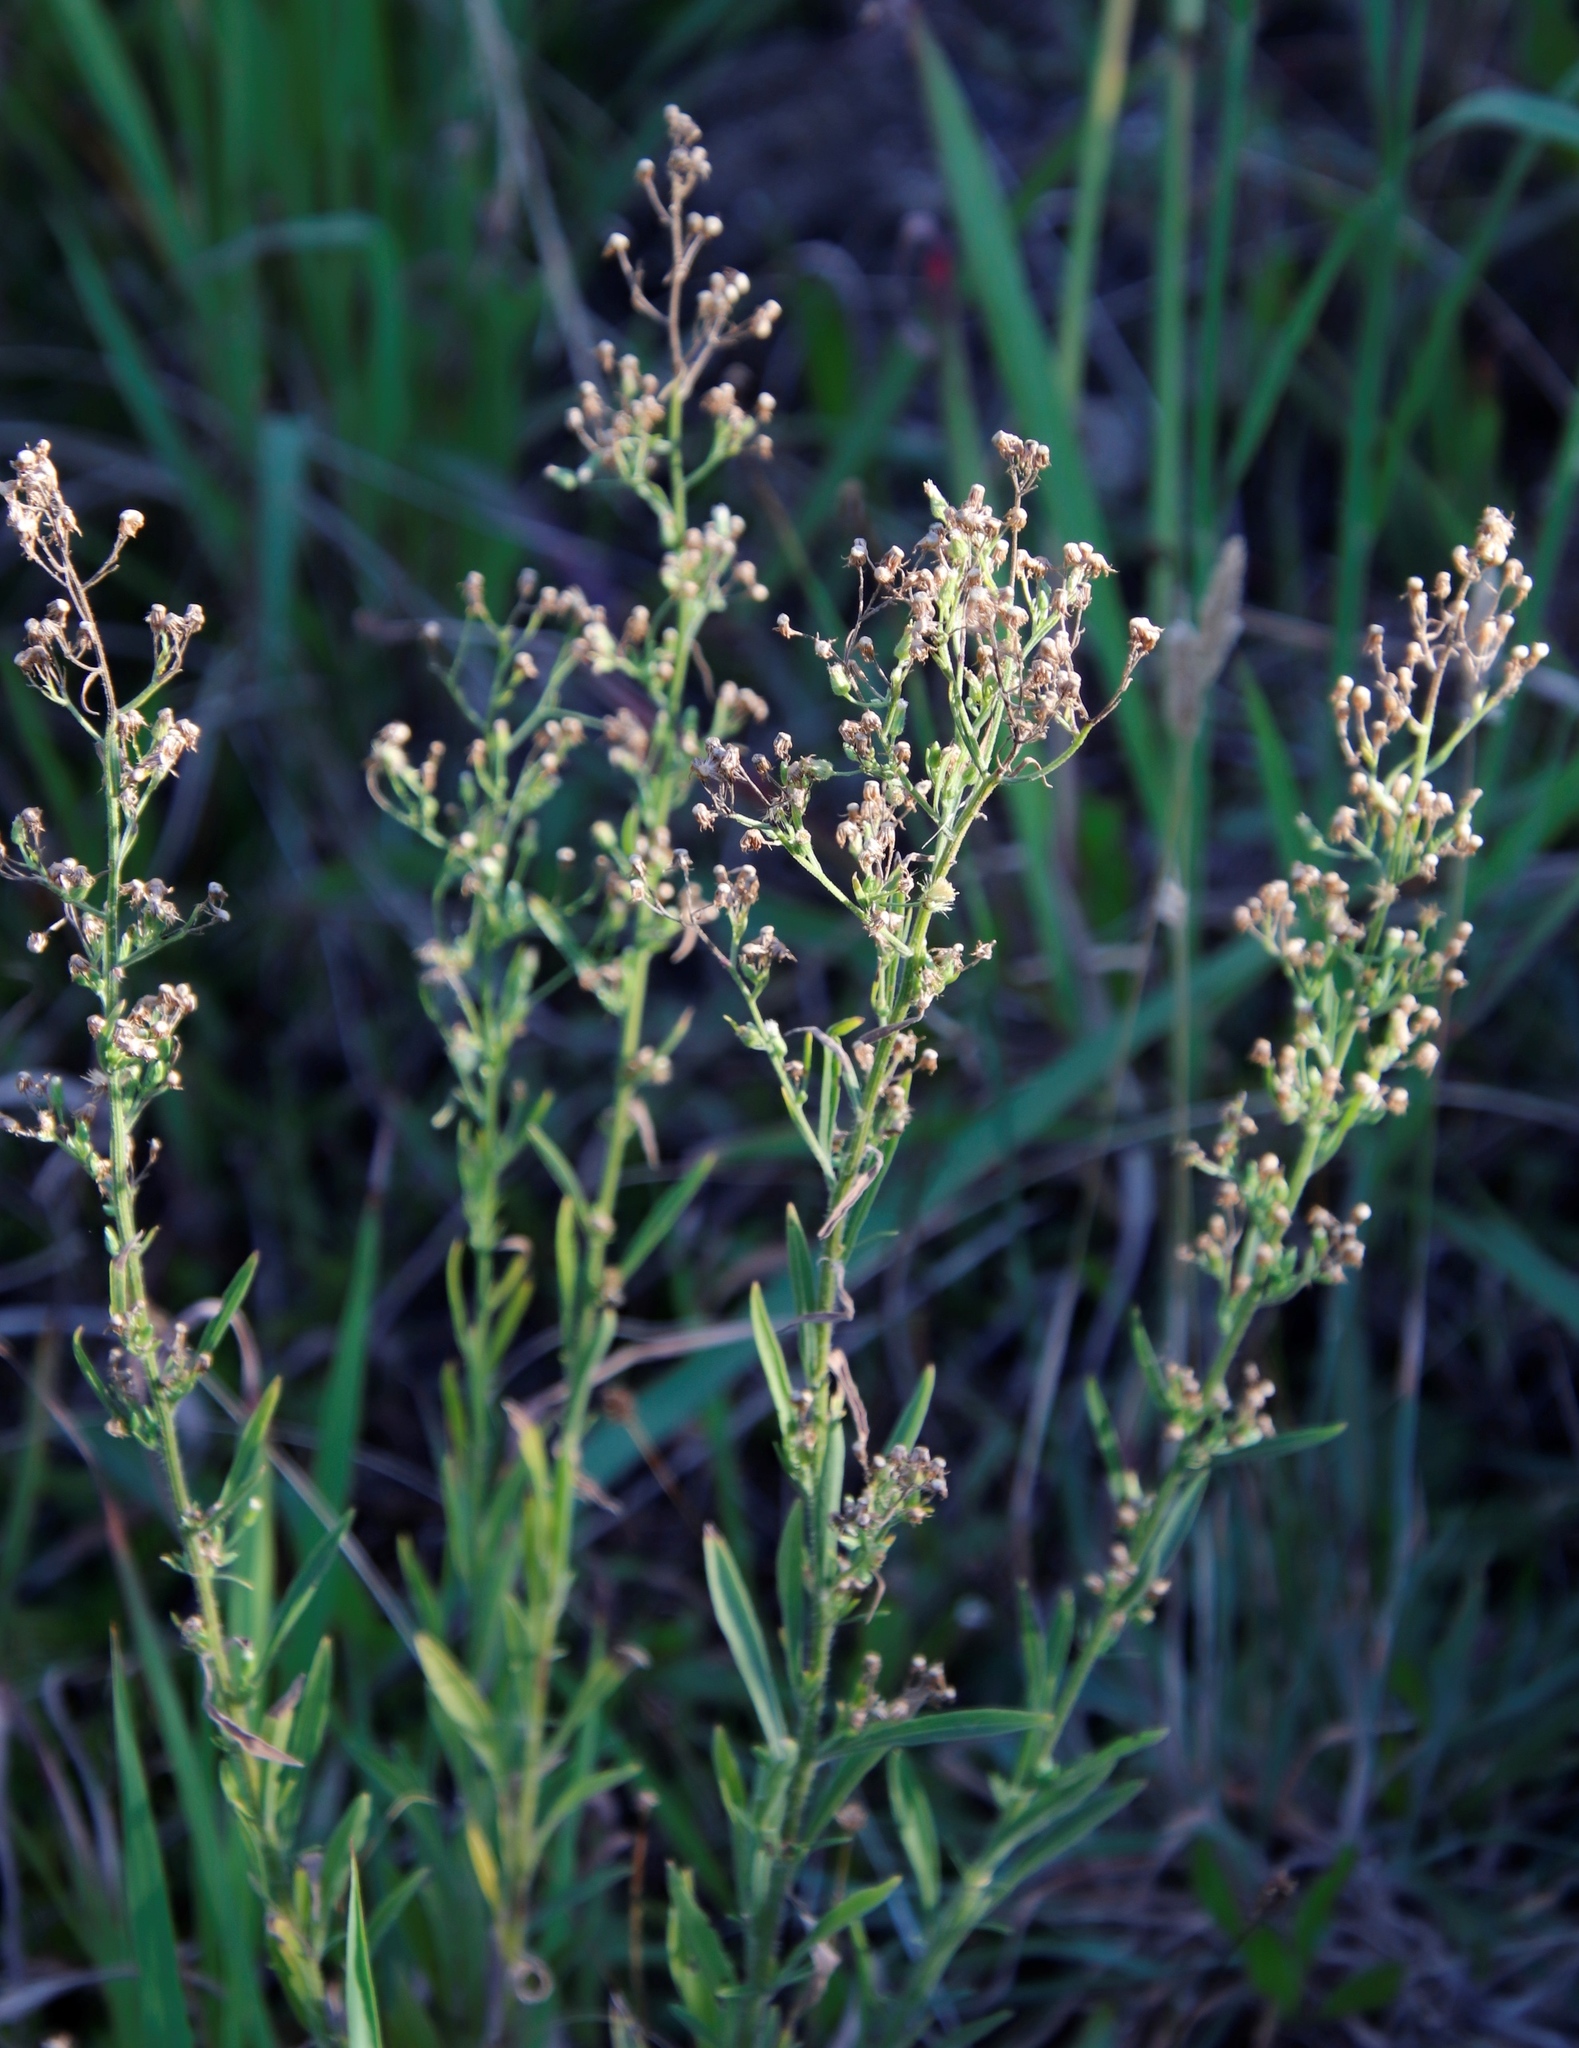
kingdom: Plantae
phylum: Tracheophyta
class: Magnoliopsida
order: Asterales
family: Asteraceae
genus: Erigeron
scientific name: Erigeron bonariensis
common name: Argentine fleabane
